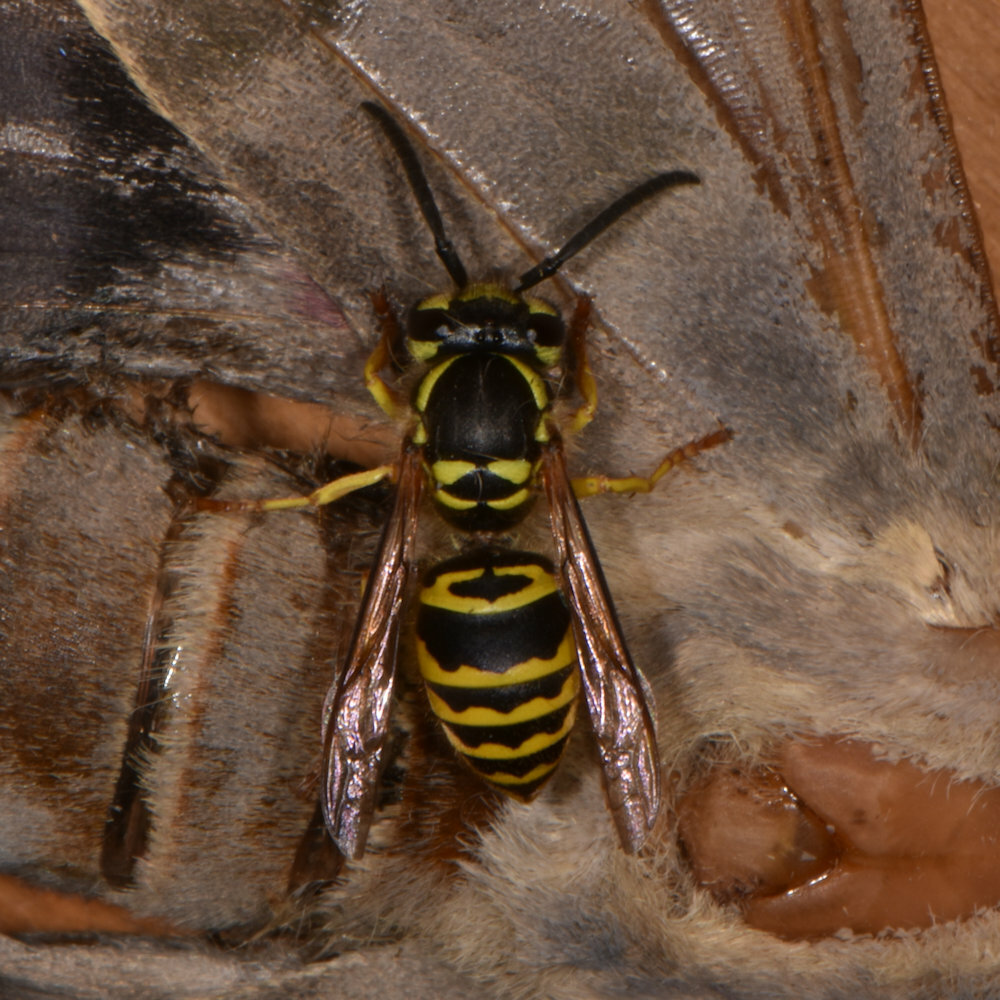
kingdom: Animalia
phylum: Arthropoda
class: Insecta
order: Hymenoptera
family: Vespidae
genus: Vespula
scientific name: Vespula maculifrons
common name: Eastern yellowjacket
